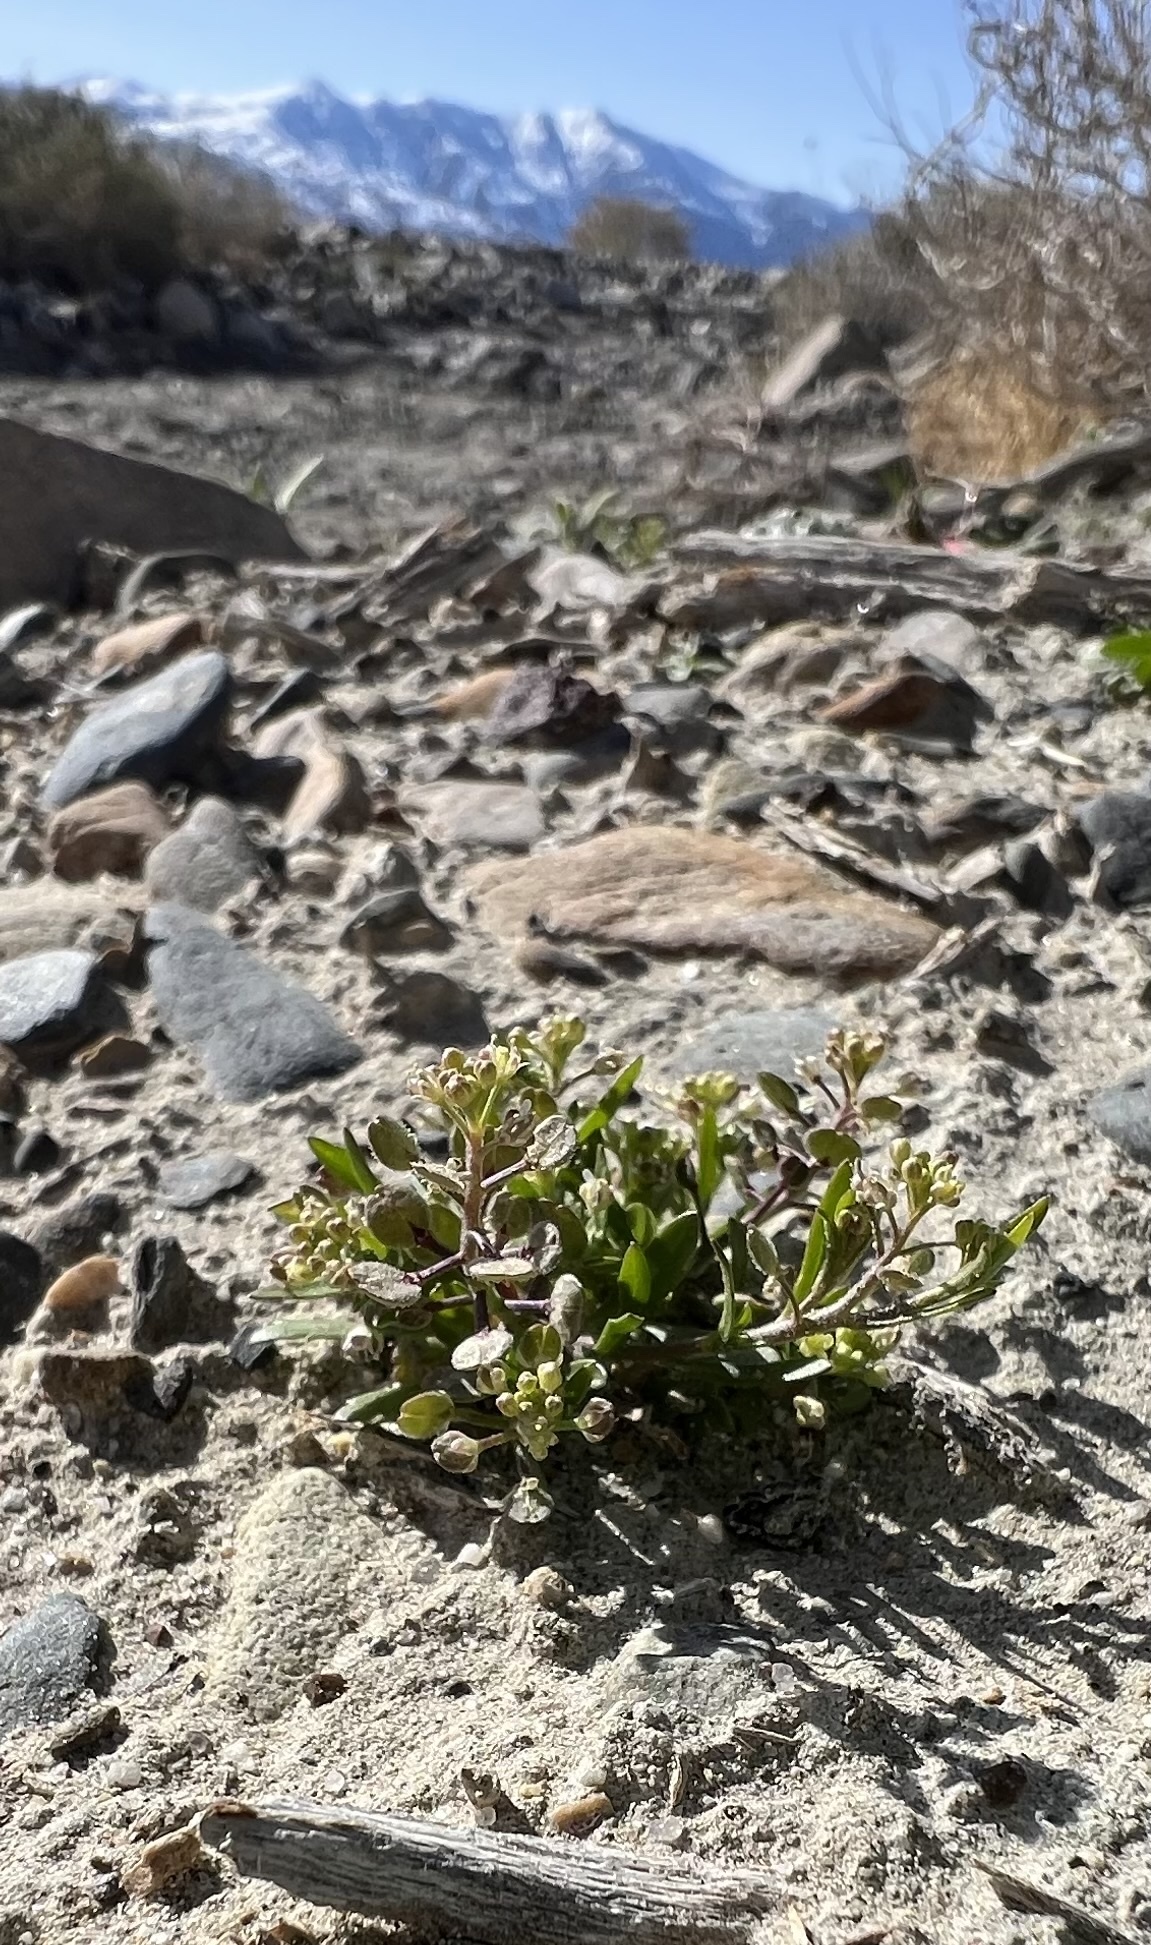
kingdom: Plantae
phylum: Tracheophyta
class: Magnoliopsida
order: Brassicales
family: Brassicaceae
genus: Lepidium
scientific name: Lepidium lasiocarpum
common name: Hairy-pod pepperwort
